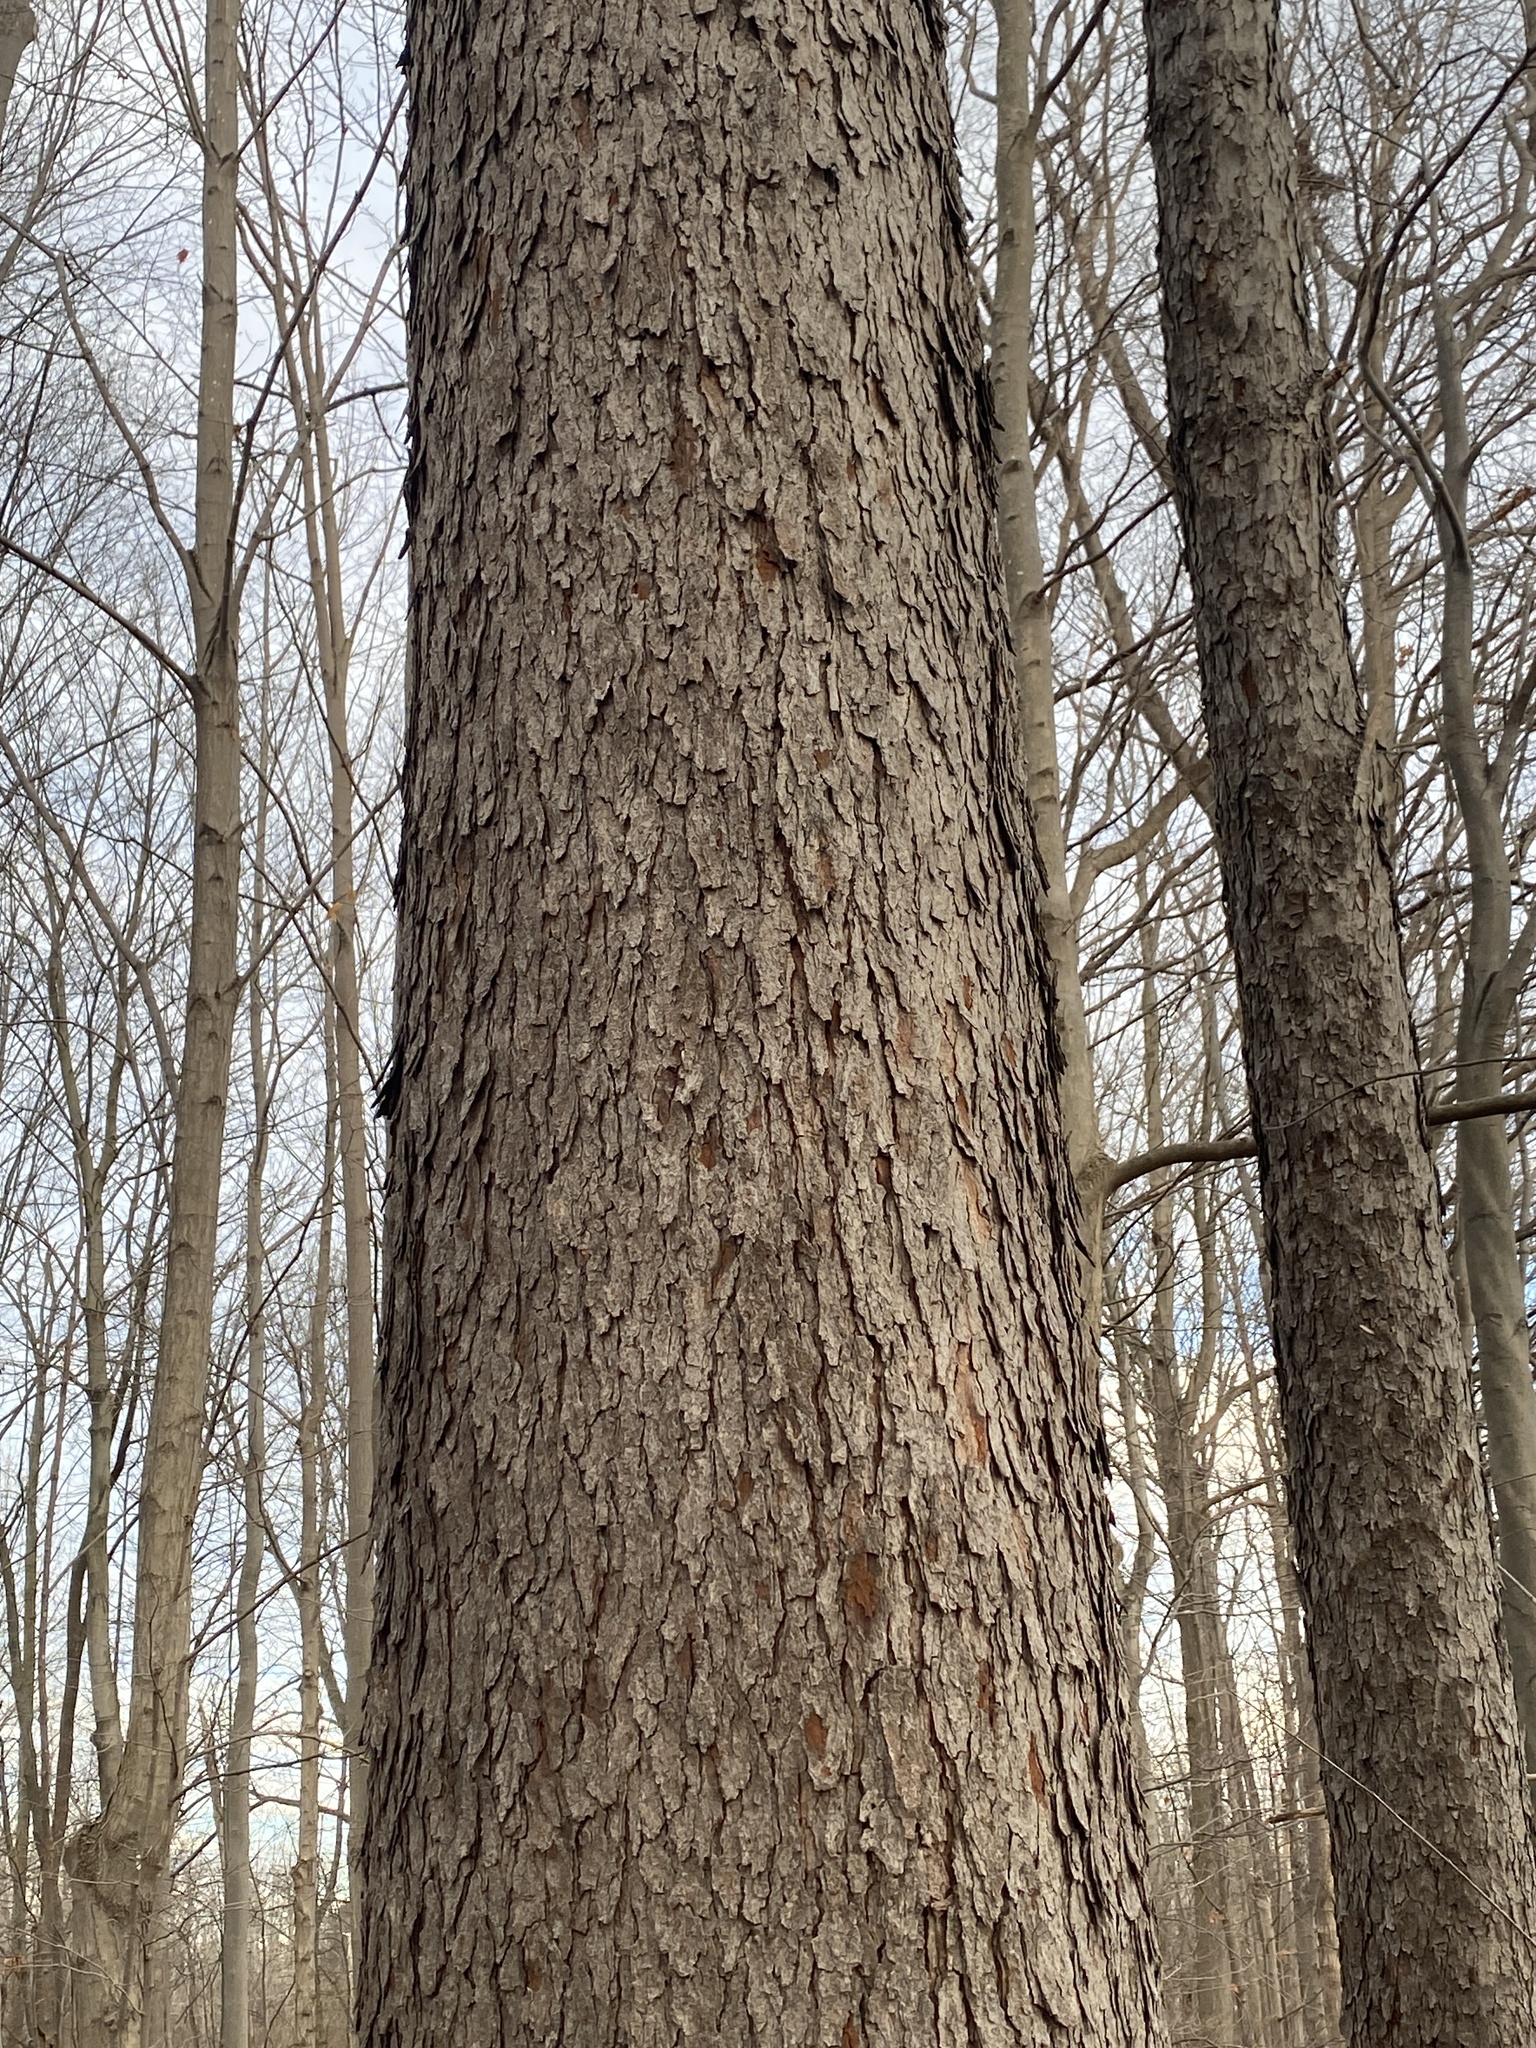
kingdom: Plantae
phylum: Tracheophyta
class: Magnoliopsida
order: Rosales
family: Rosaceae
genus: Prunus
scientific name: Prunus serotina
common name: Black cherry
